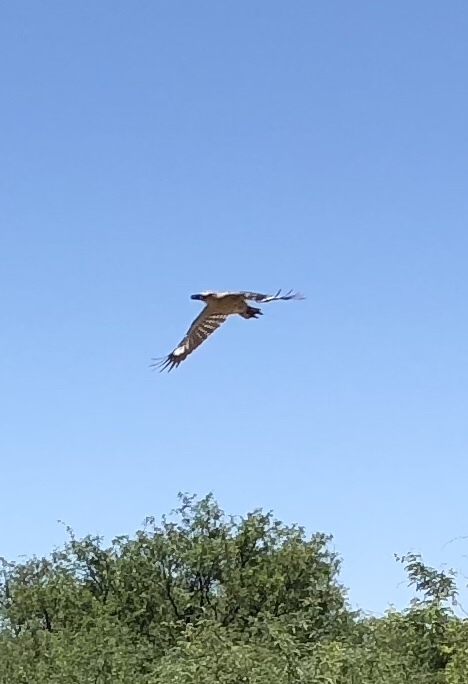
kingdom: Animalia
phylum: Chordata
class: Aves
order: Piciformes
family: Picidae
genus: Melanerpes
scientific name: Melanerpes uropygialis
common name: Gila woodpecker
